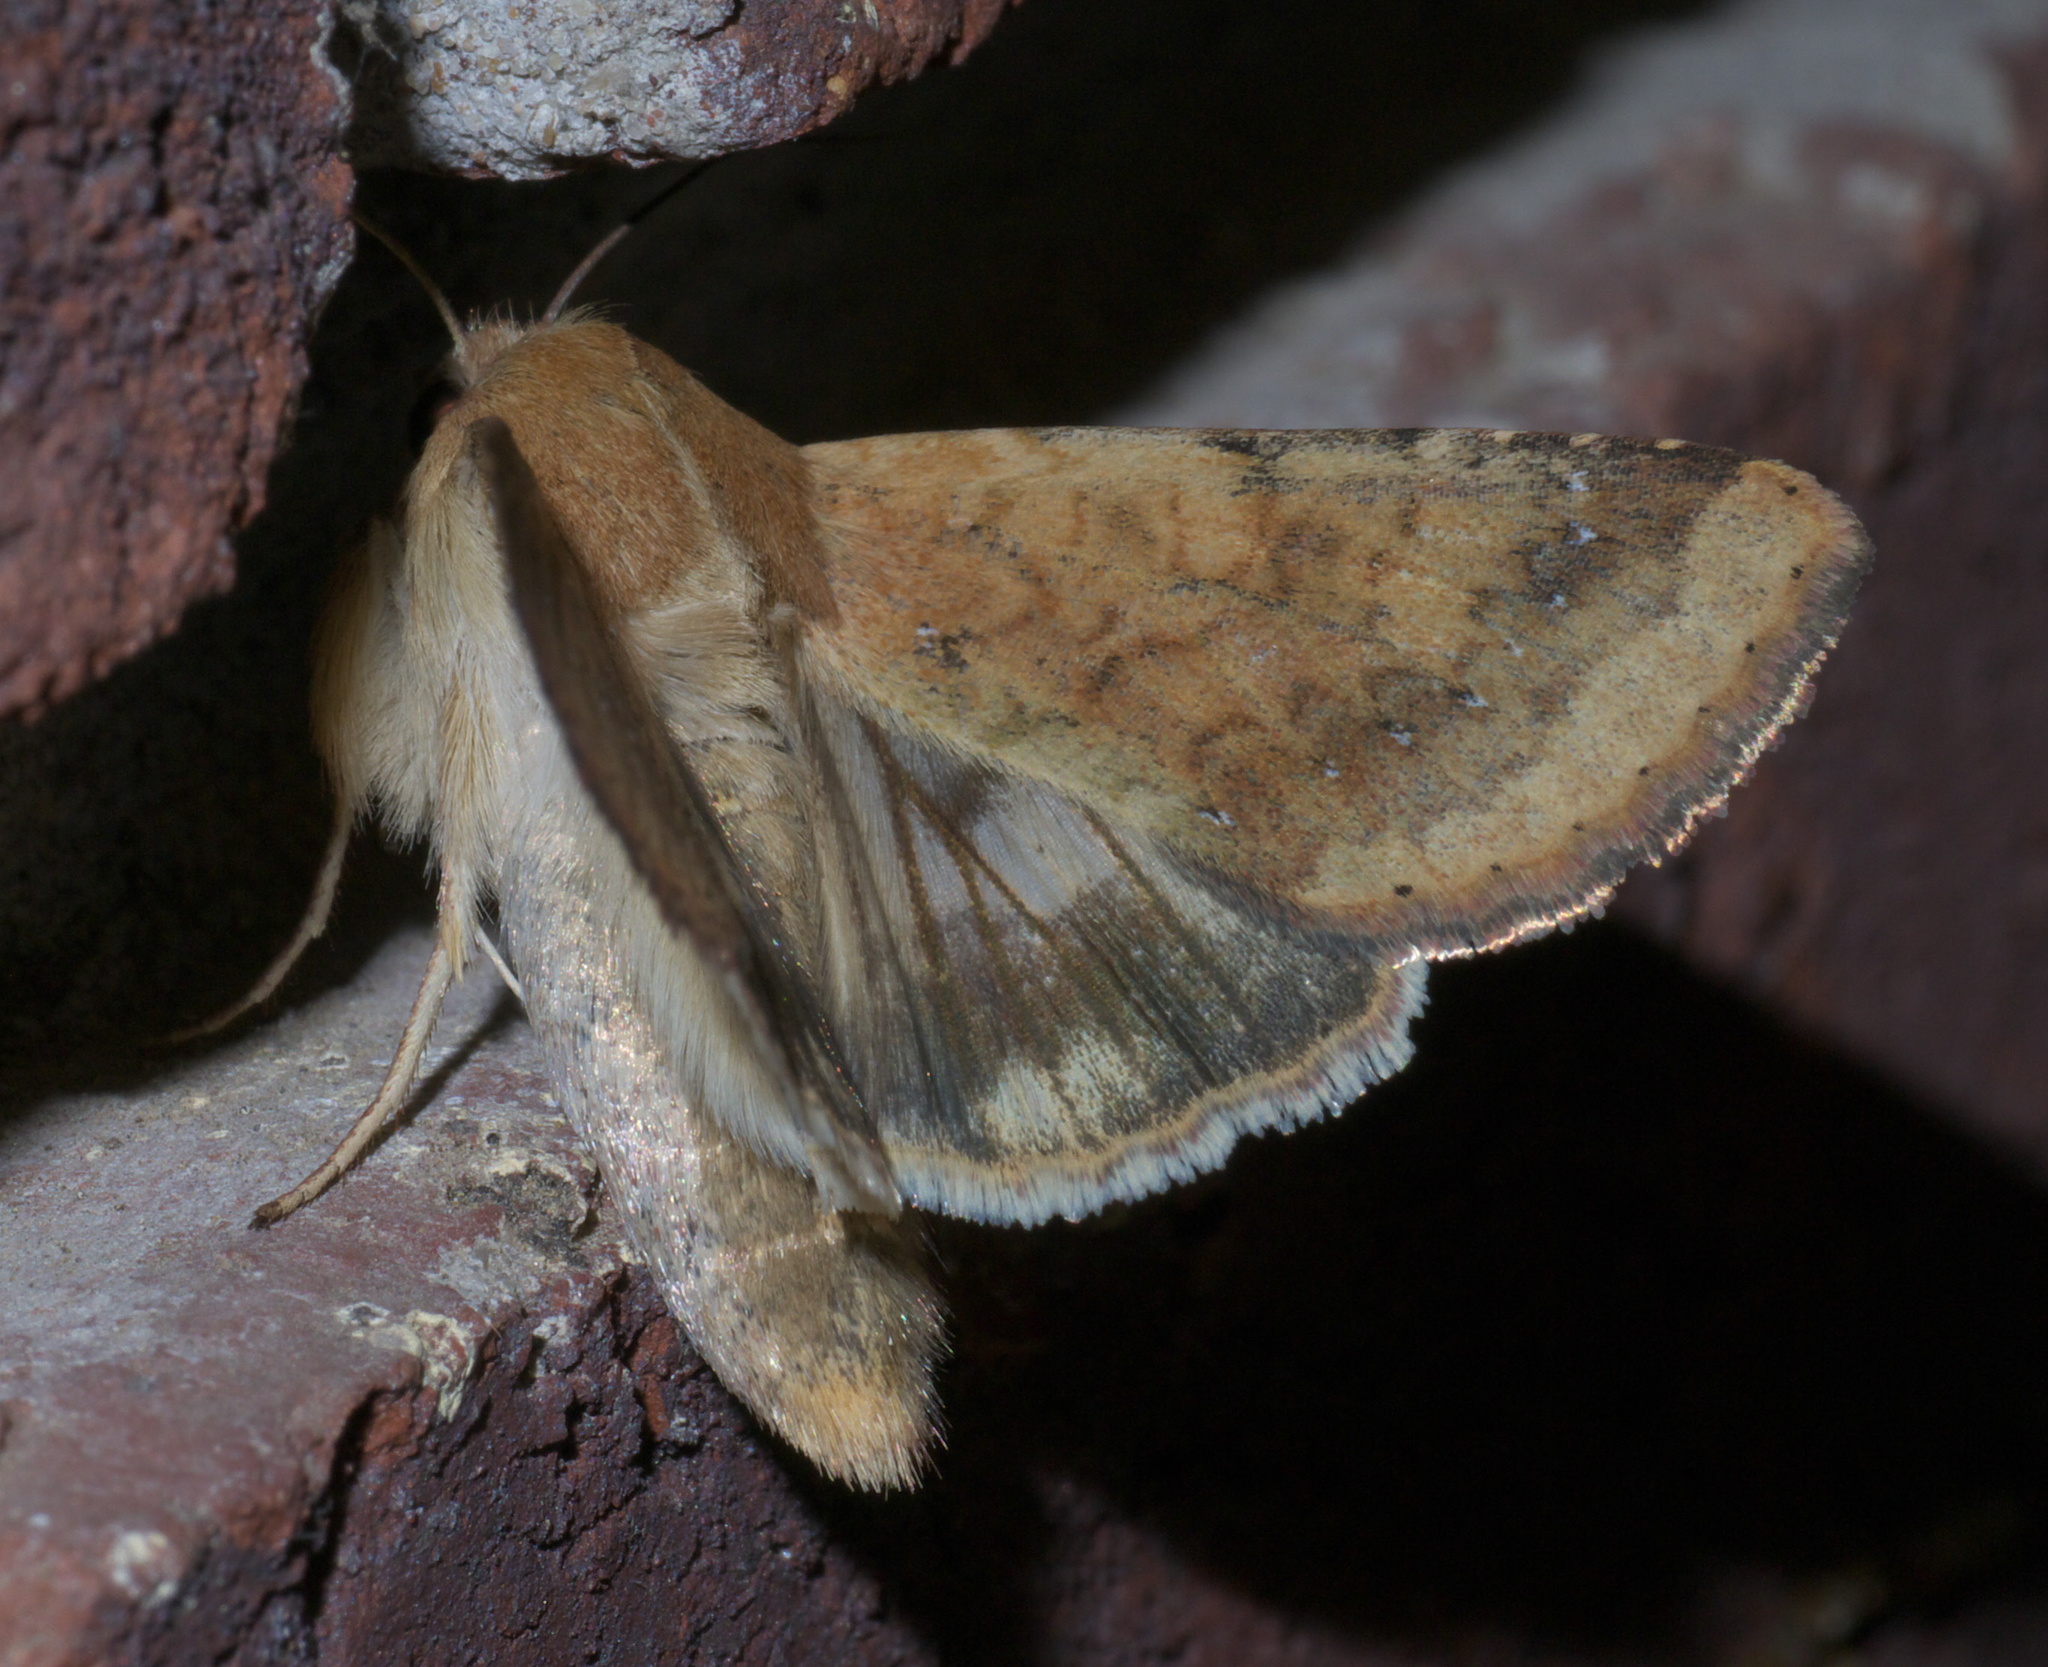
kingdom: Animalia
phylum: Arthropoda
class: Insecta
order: Lepidoptera
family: Noctuidae
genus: Helicoverpa
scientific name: Helicoverpa zea
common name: Bollworm
